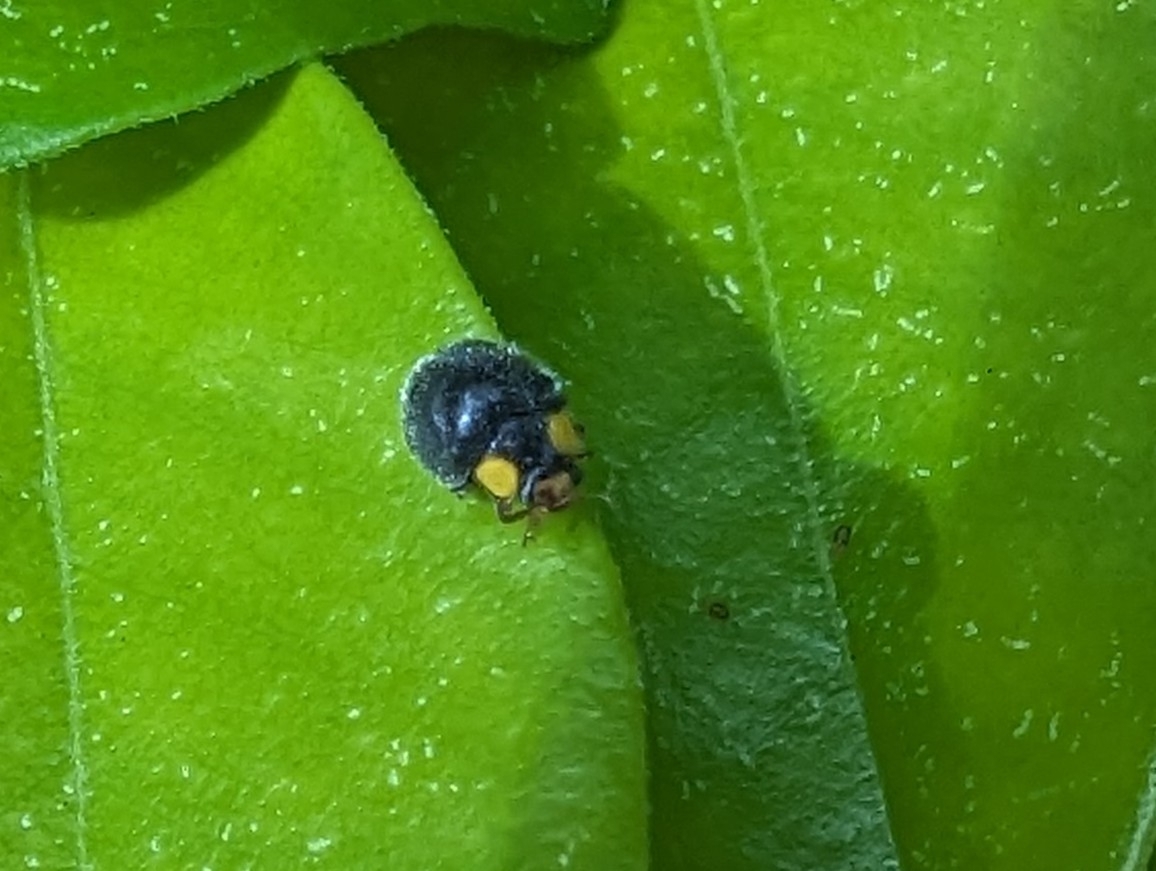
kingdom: Animalia
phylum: Arthropoda
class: Insecta
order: Coleoptera
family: Coccinellidae
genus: Scymnodes
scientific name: Scymnodes lividigaster
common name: Yellowshouldered lady beetle
